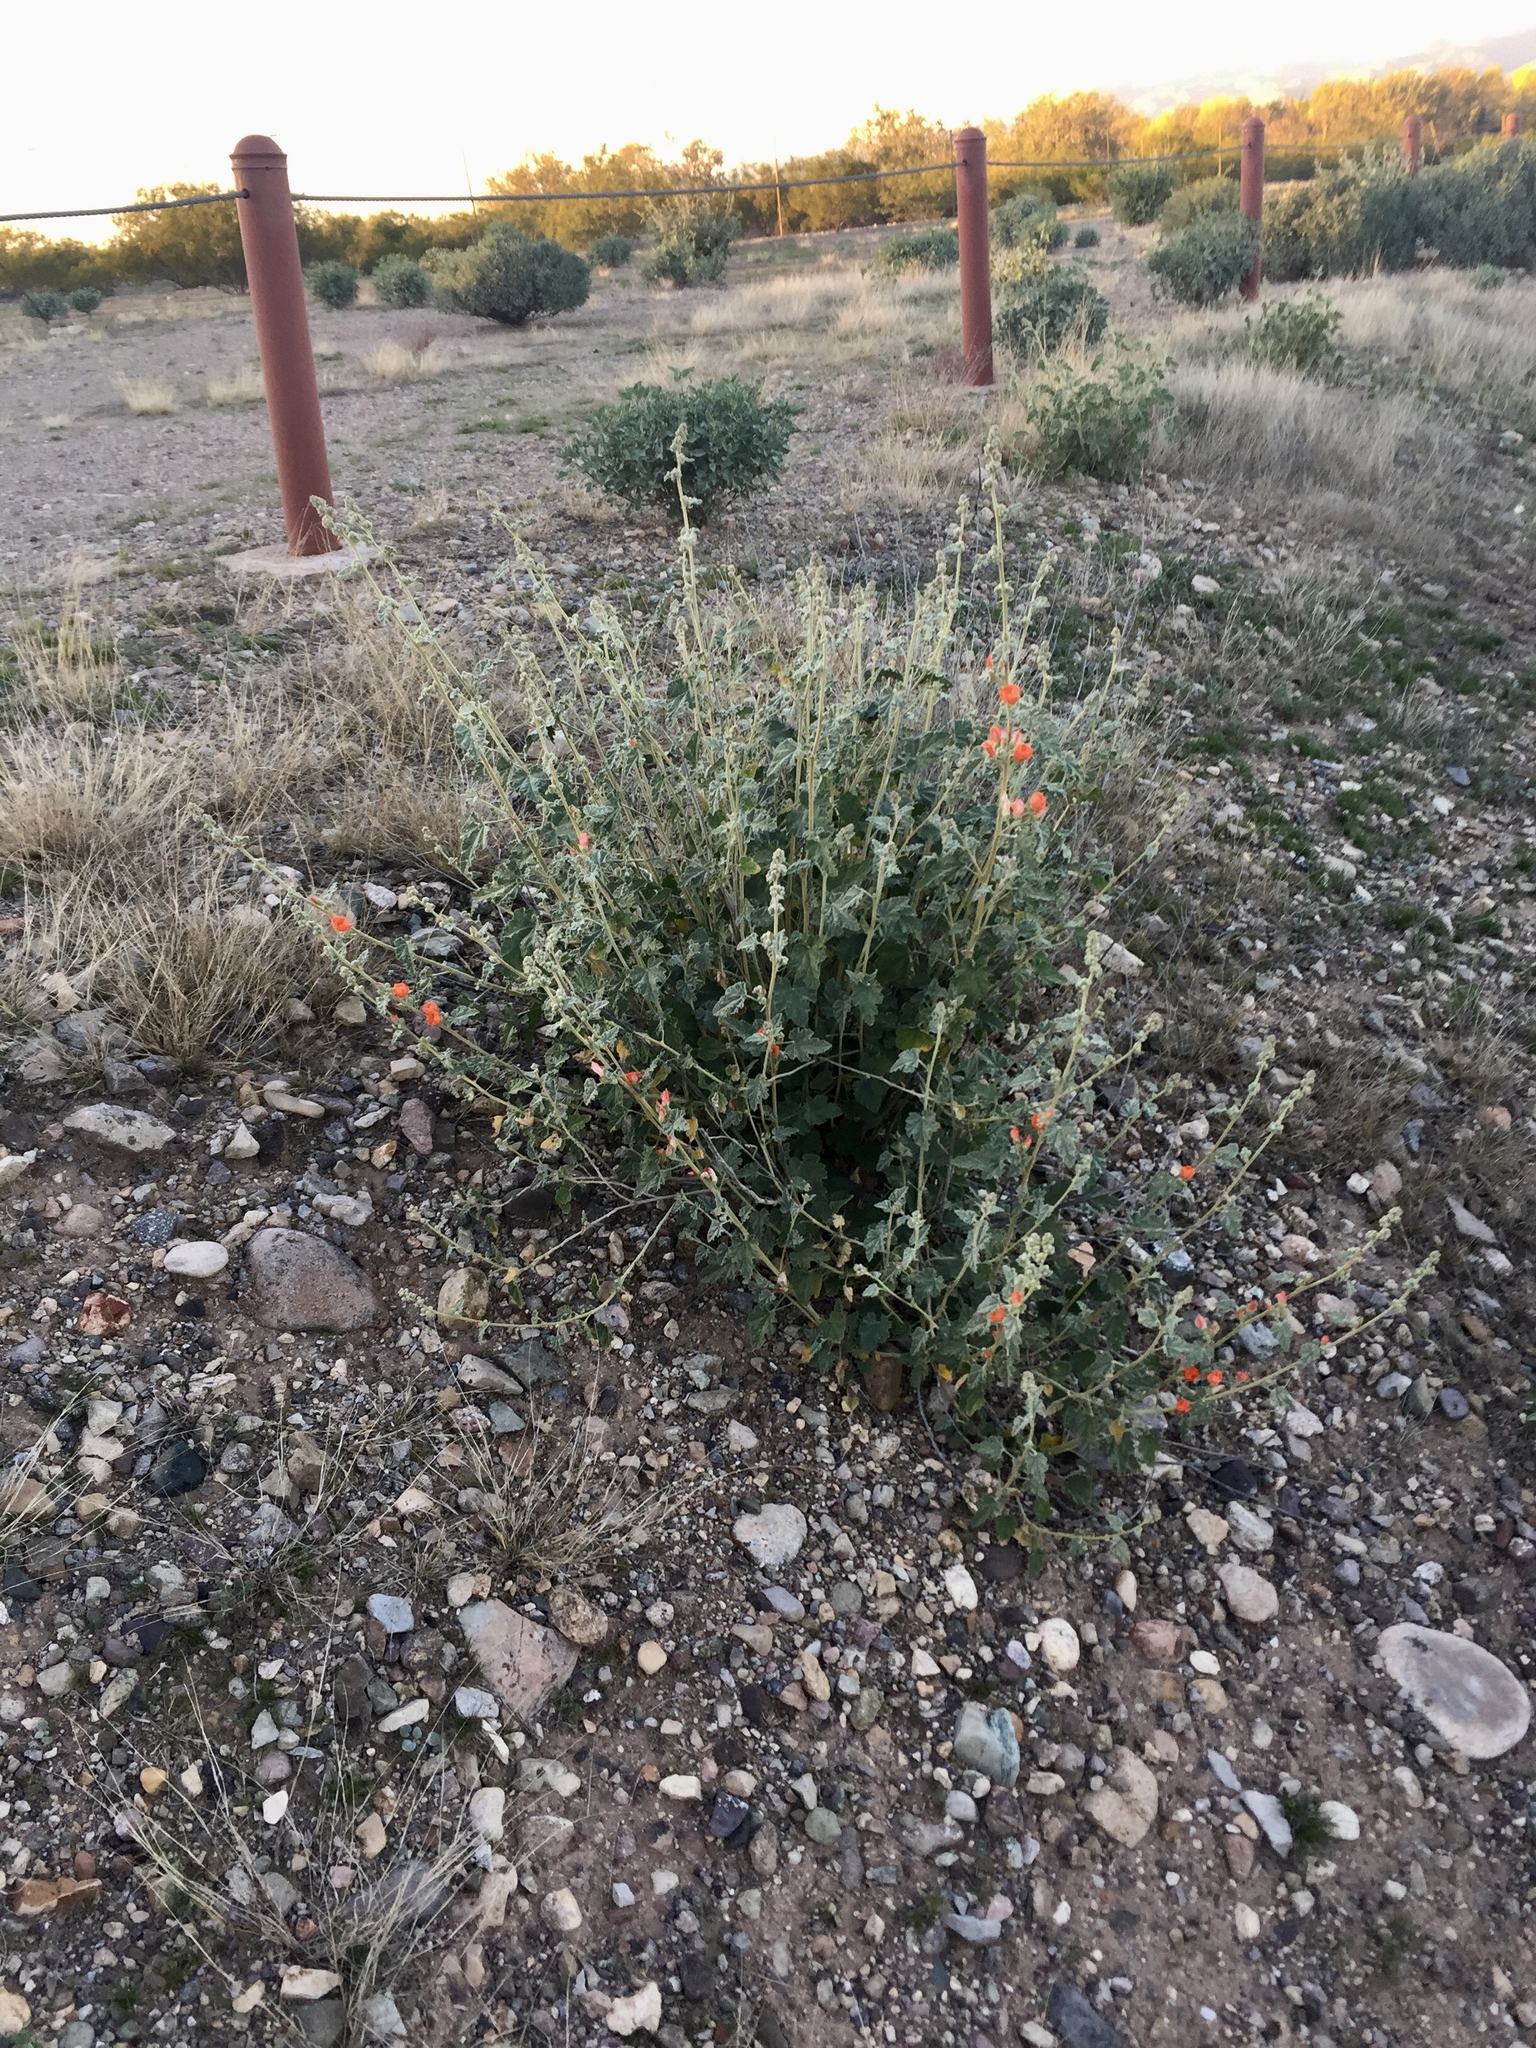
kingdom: Plantae
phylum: Tracheophyta
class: Magnoliopsida
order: Malvales
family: Malvaceae
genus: Sphaeralcea
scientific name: Sphaeralcea ambigua
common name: Apricot globe-mallow
